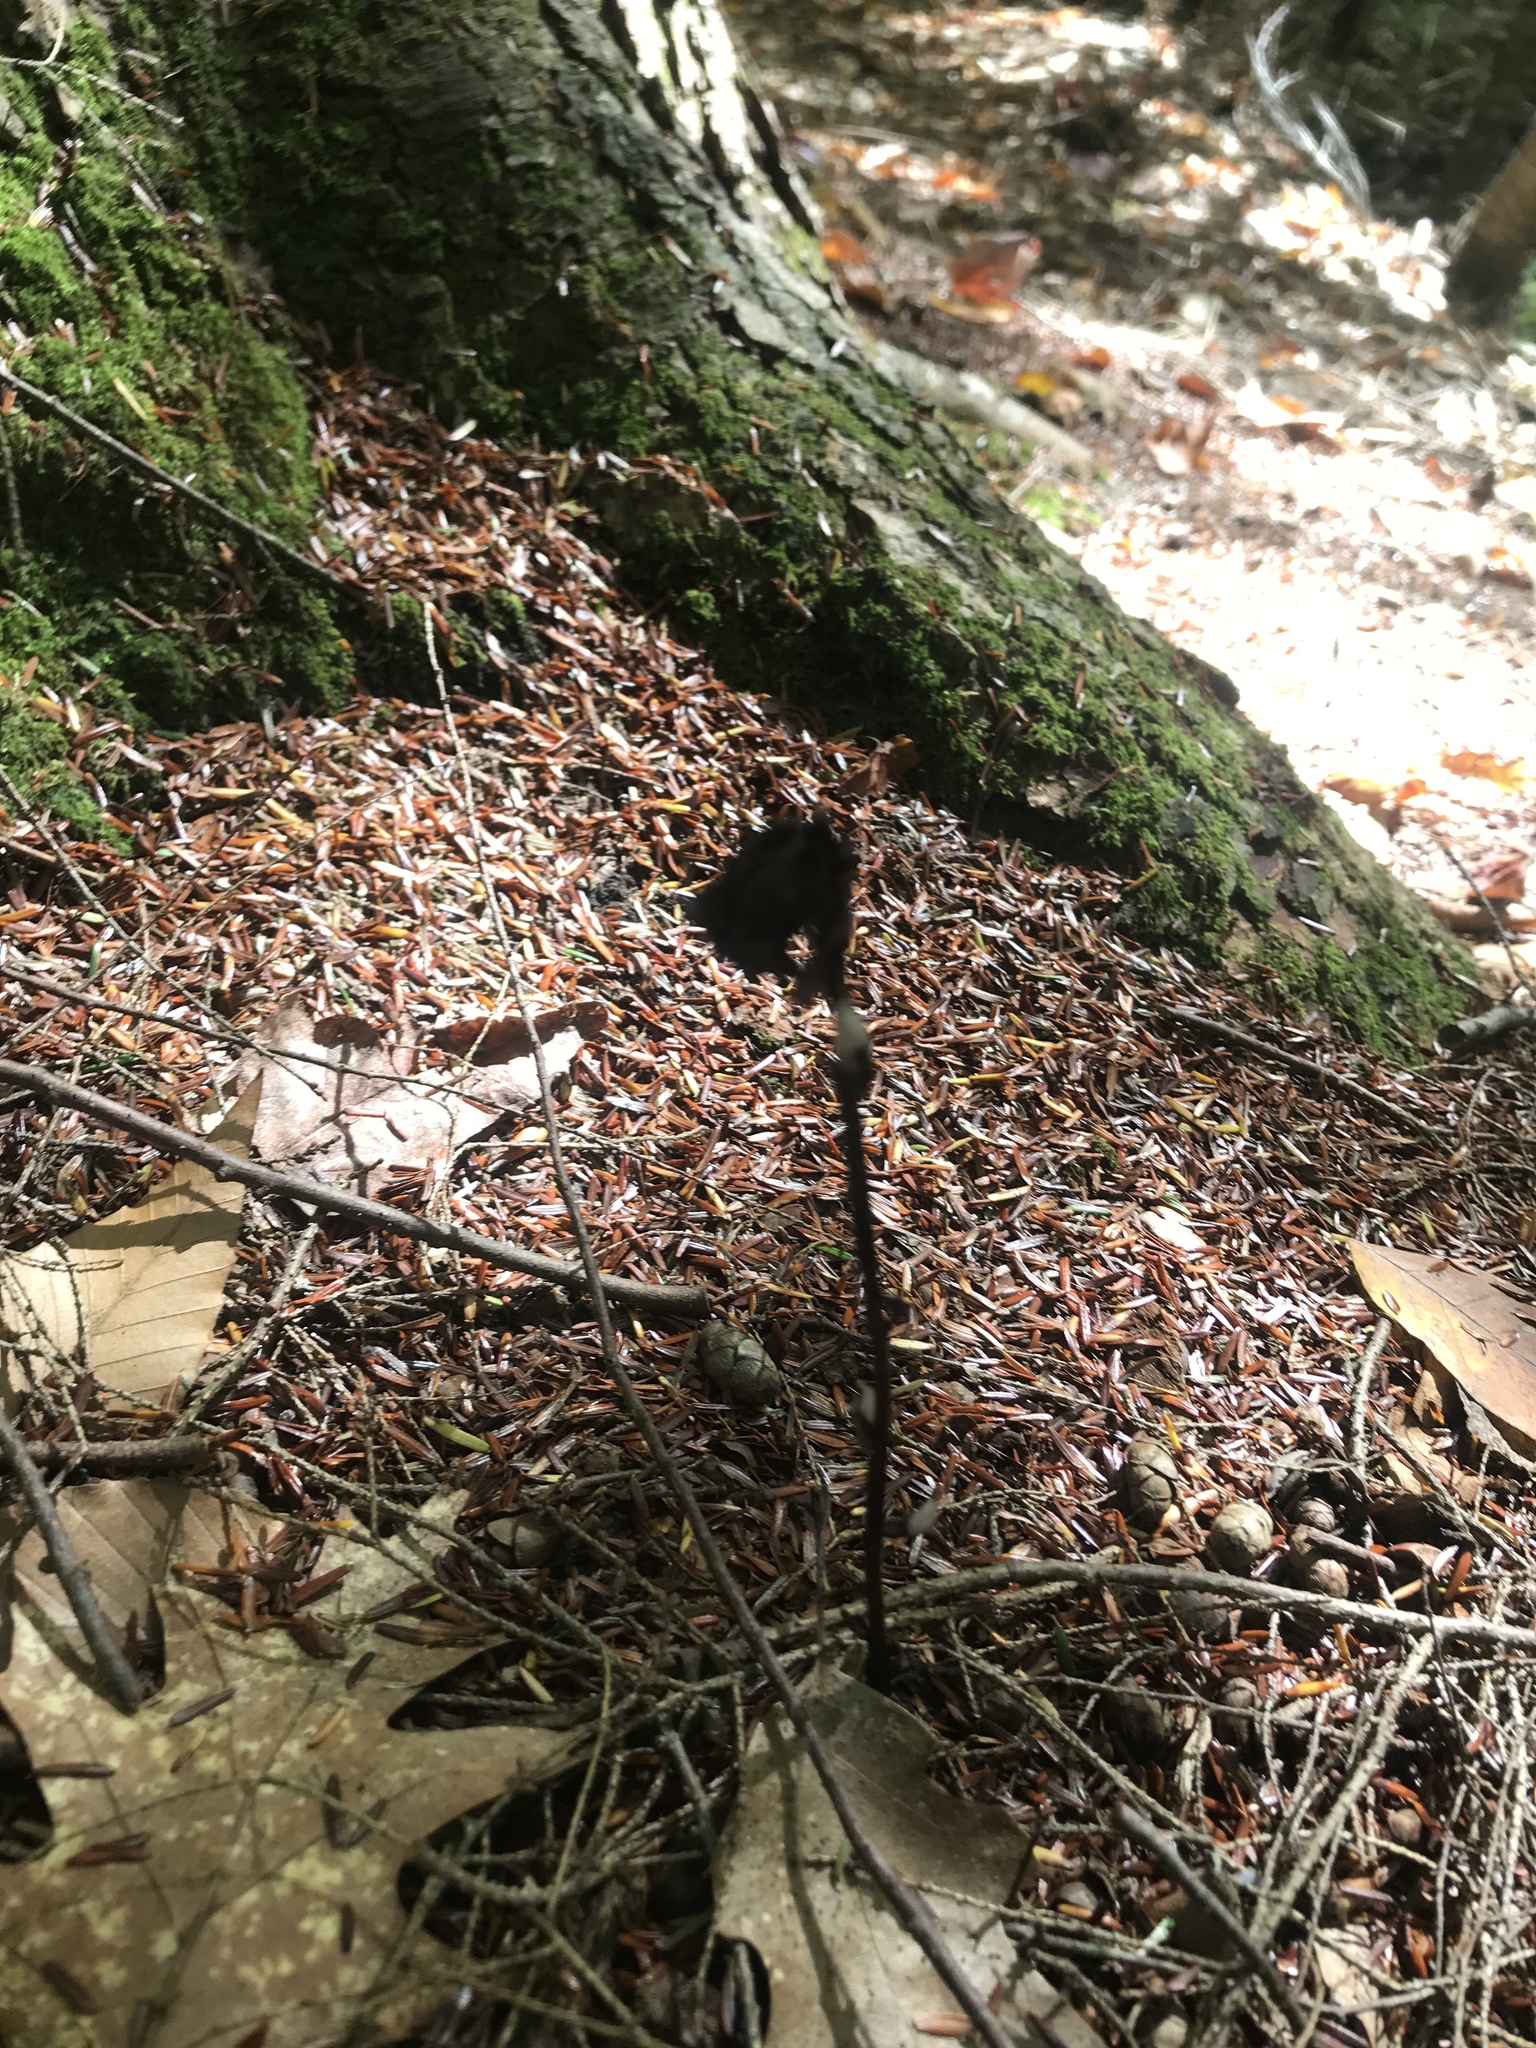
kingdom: Plantae
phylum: Tracheophyta
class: Magnoliopsida
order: Ericales
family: Ericaceae
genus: Monotropa
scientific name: Monotropa uniflora
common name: Convulsion root
